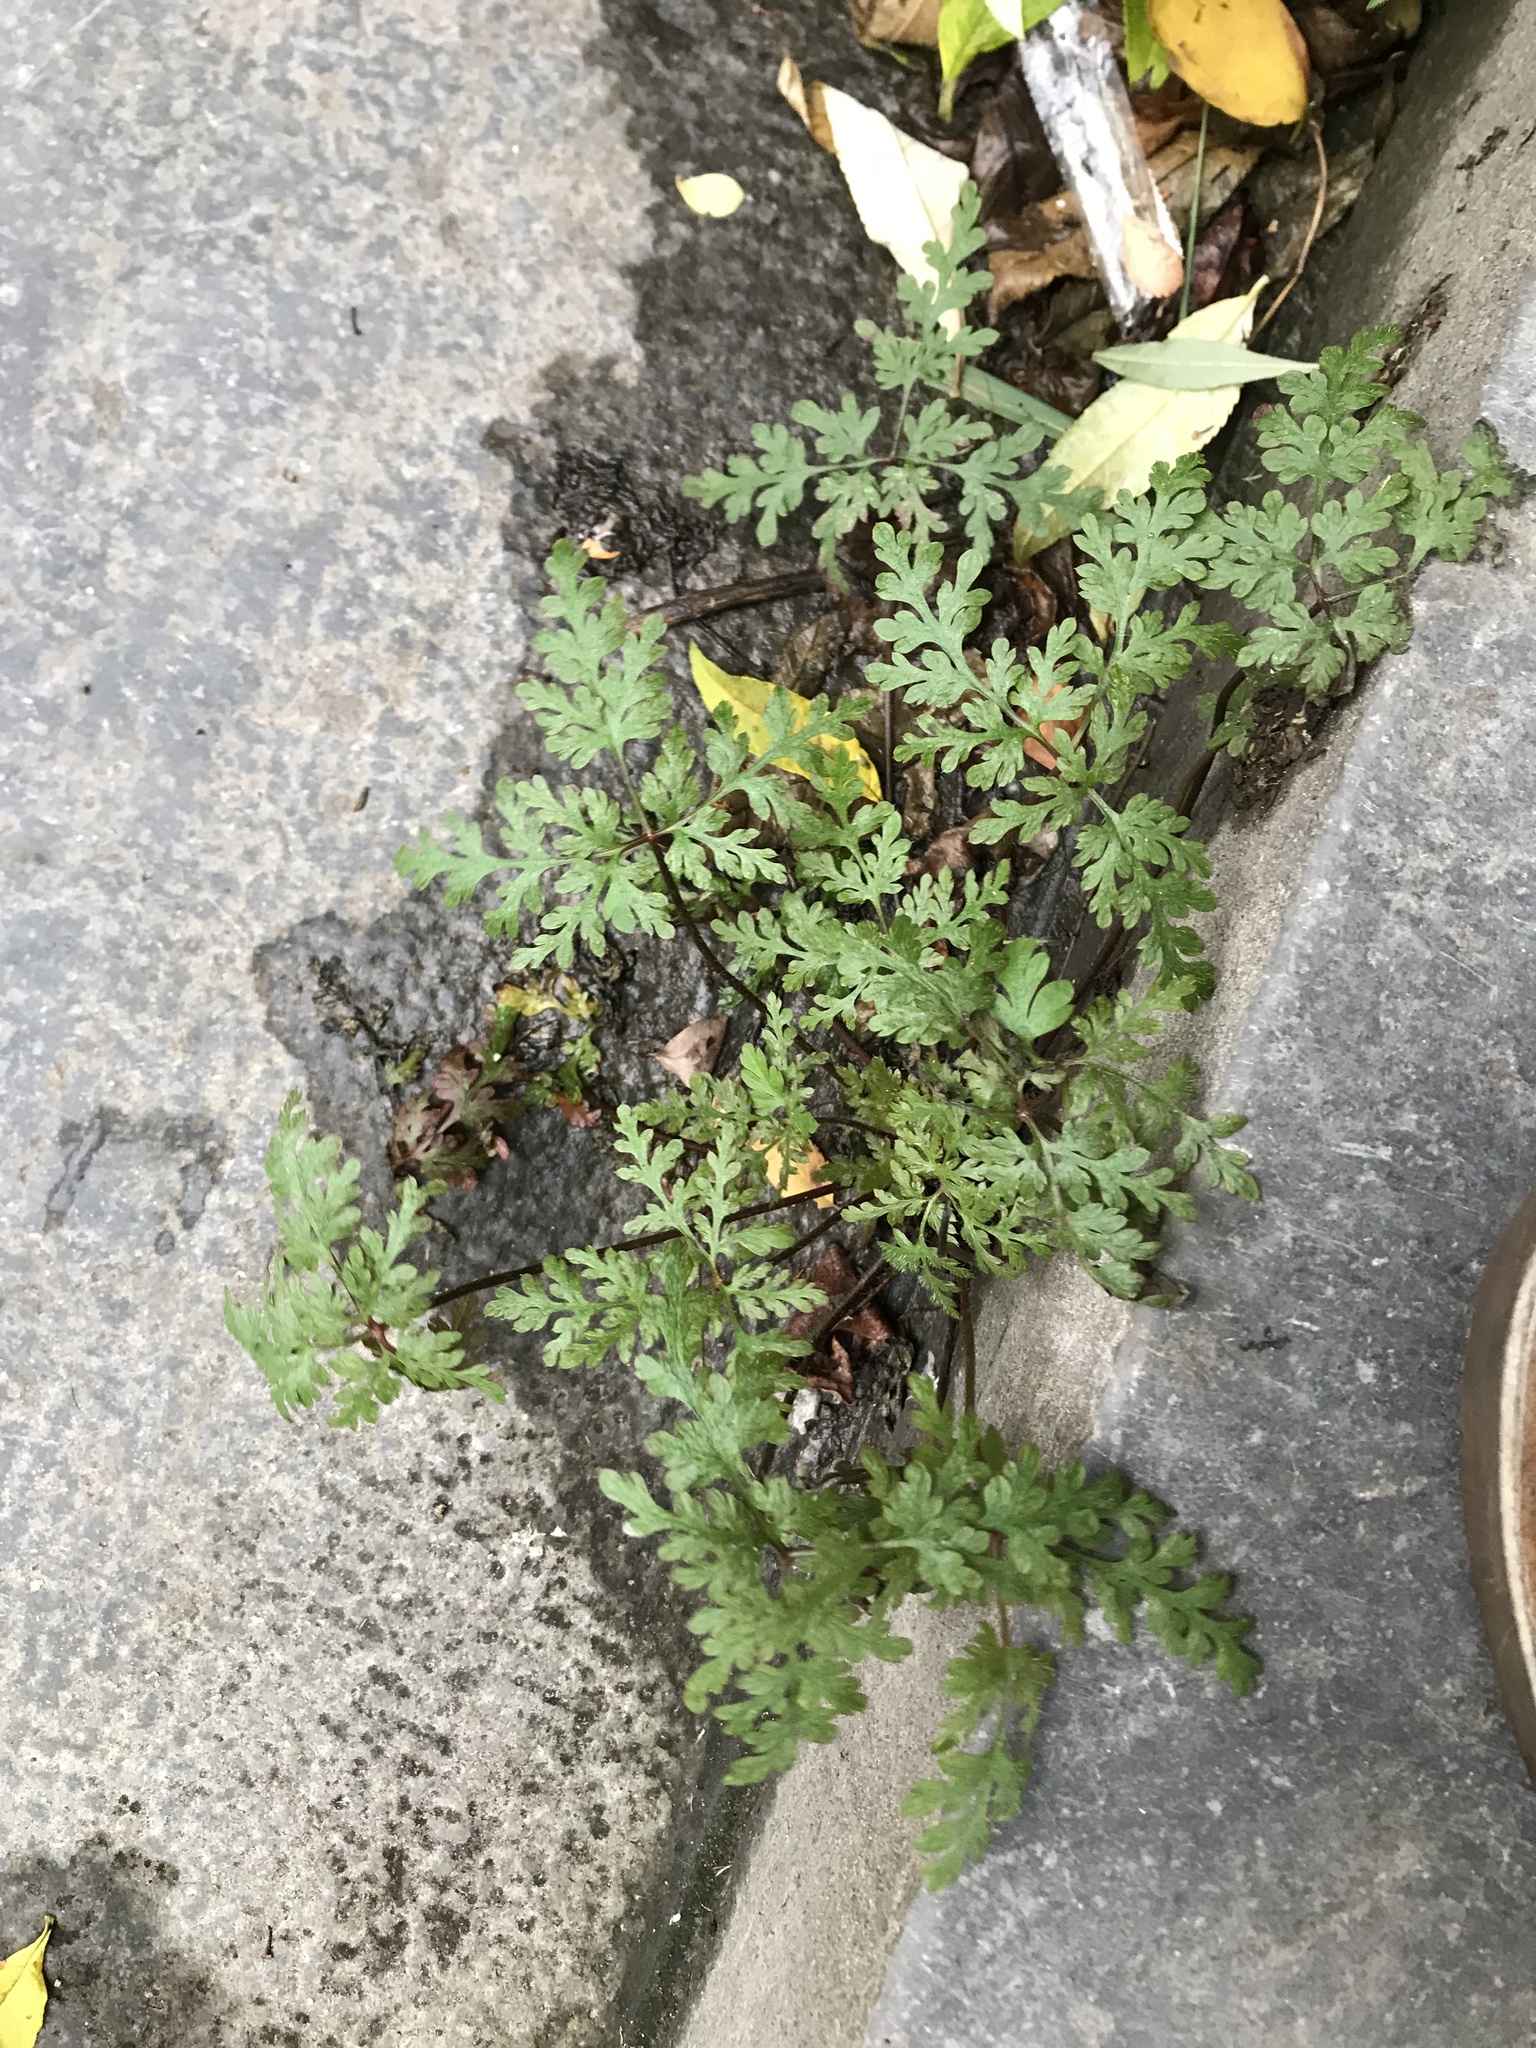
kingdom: Plantae
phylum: Tracheophyta
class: Magnoliopsida
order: Geraniales
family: Geraniaceae
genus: Geranium
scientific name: Geranium robertianum
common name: Herb-robert
